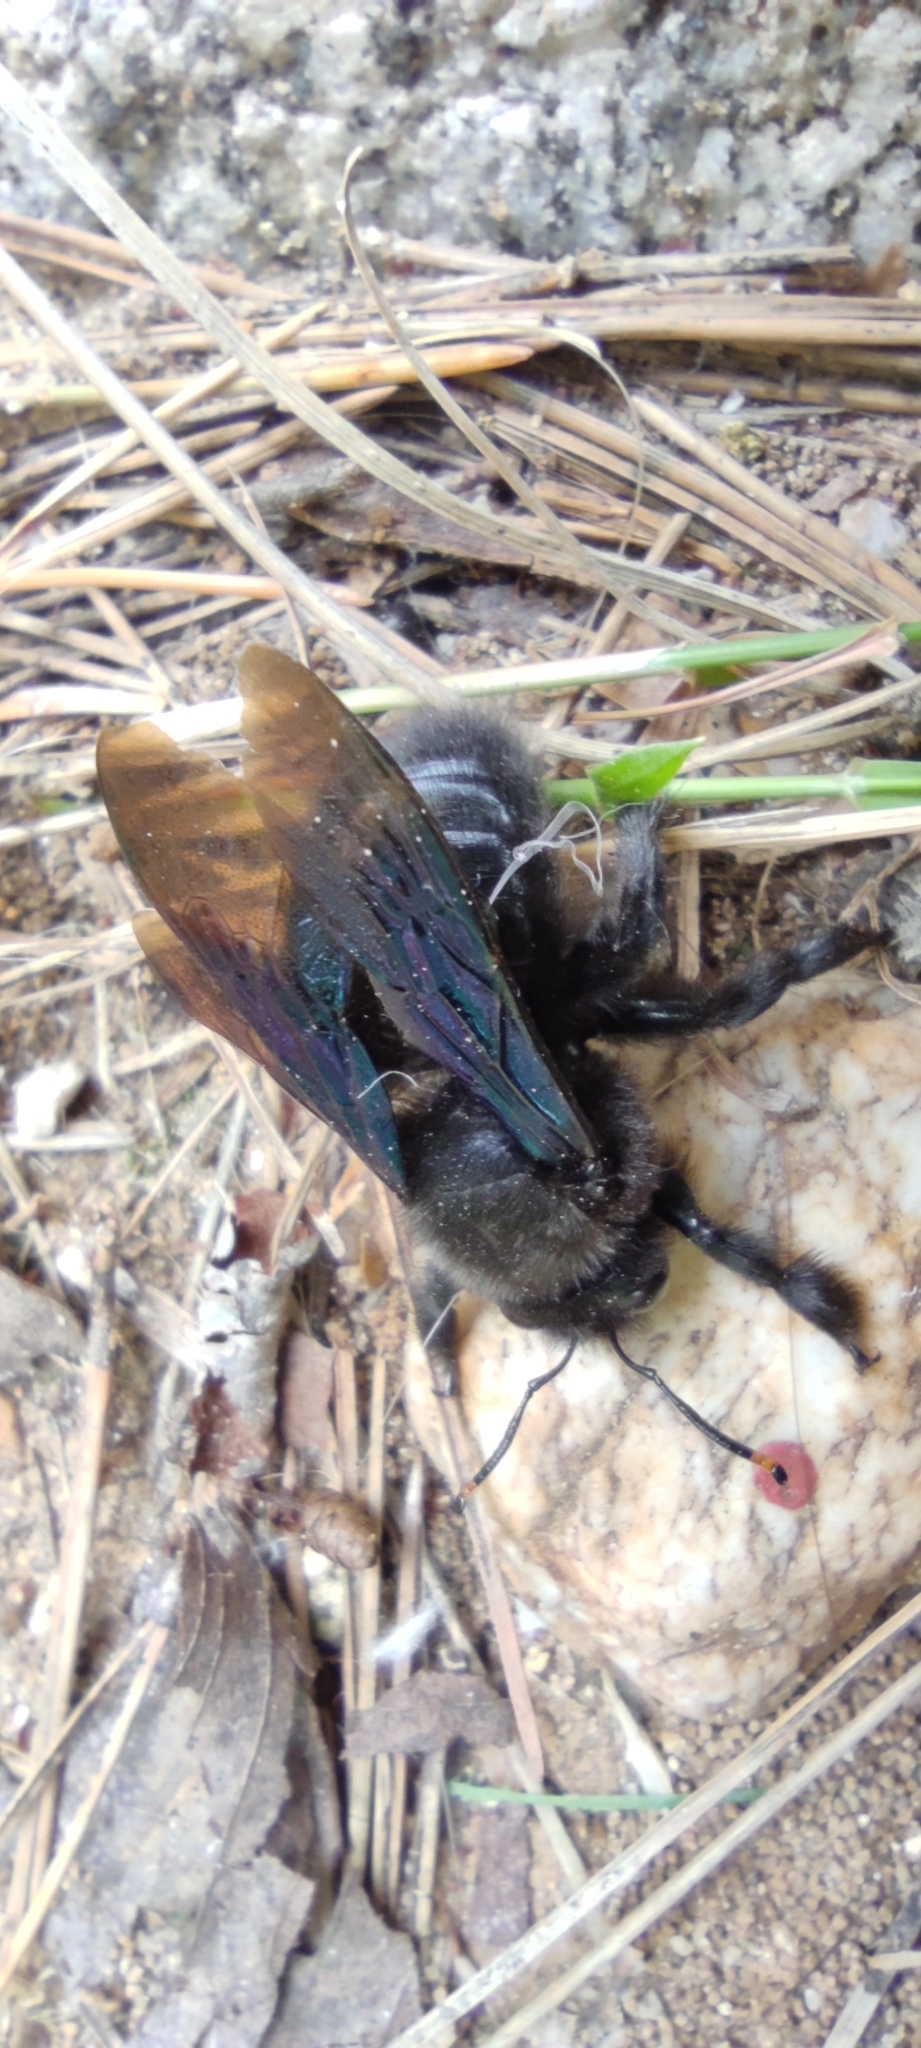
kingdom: Animalia
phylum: Arthropoda
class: Insecta
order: Hymenoptera
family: Apidae
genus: Xylocopa
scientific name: Xylocopa violacea
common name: Violet carpenter bee
